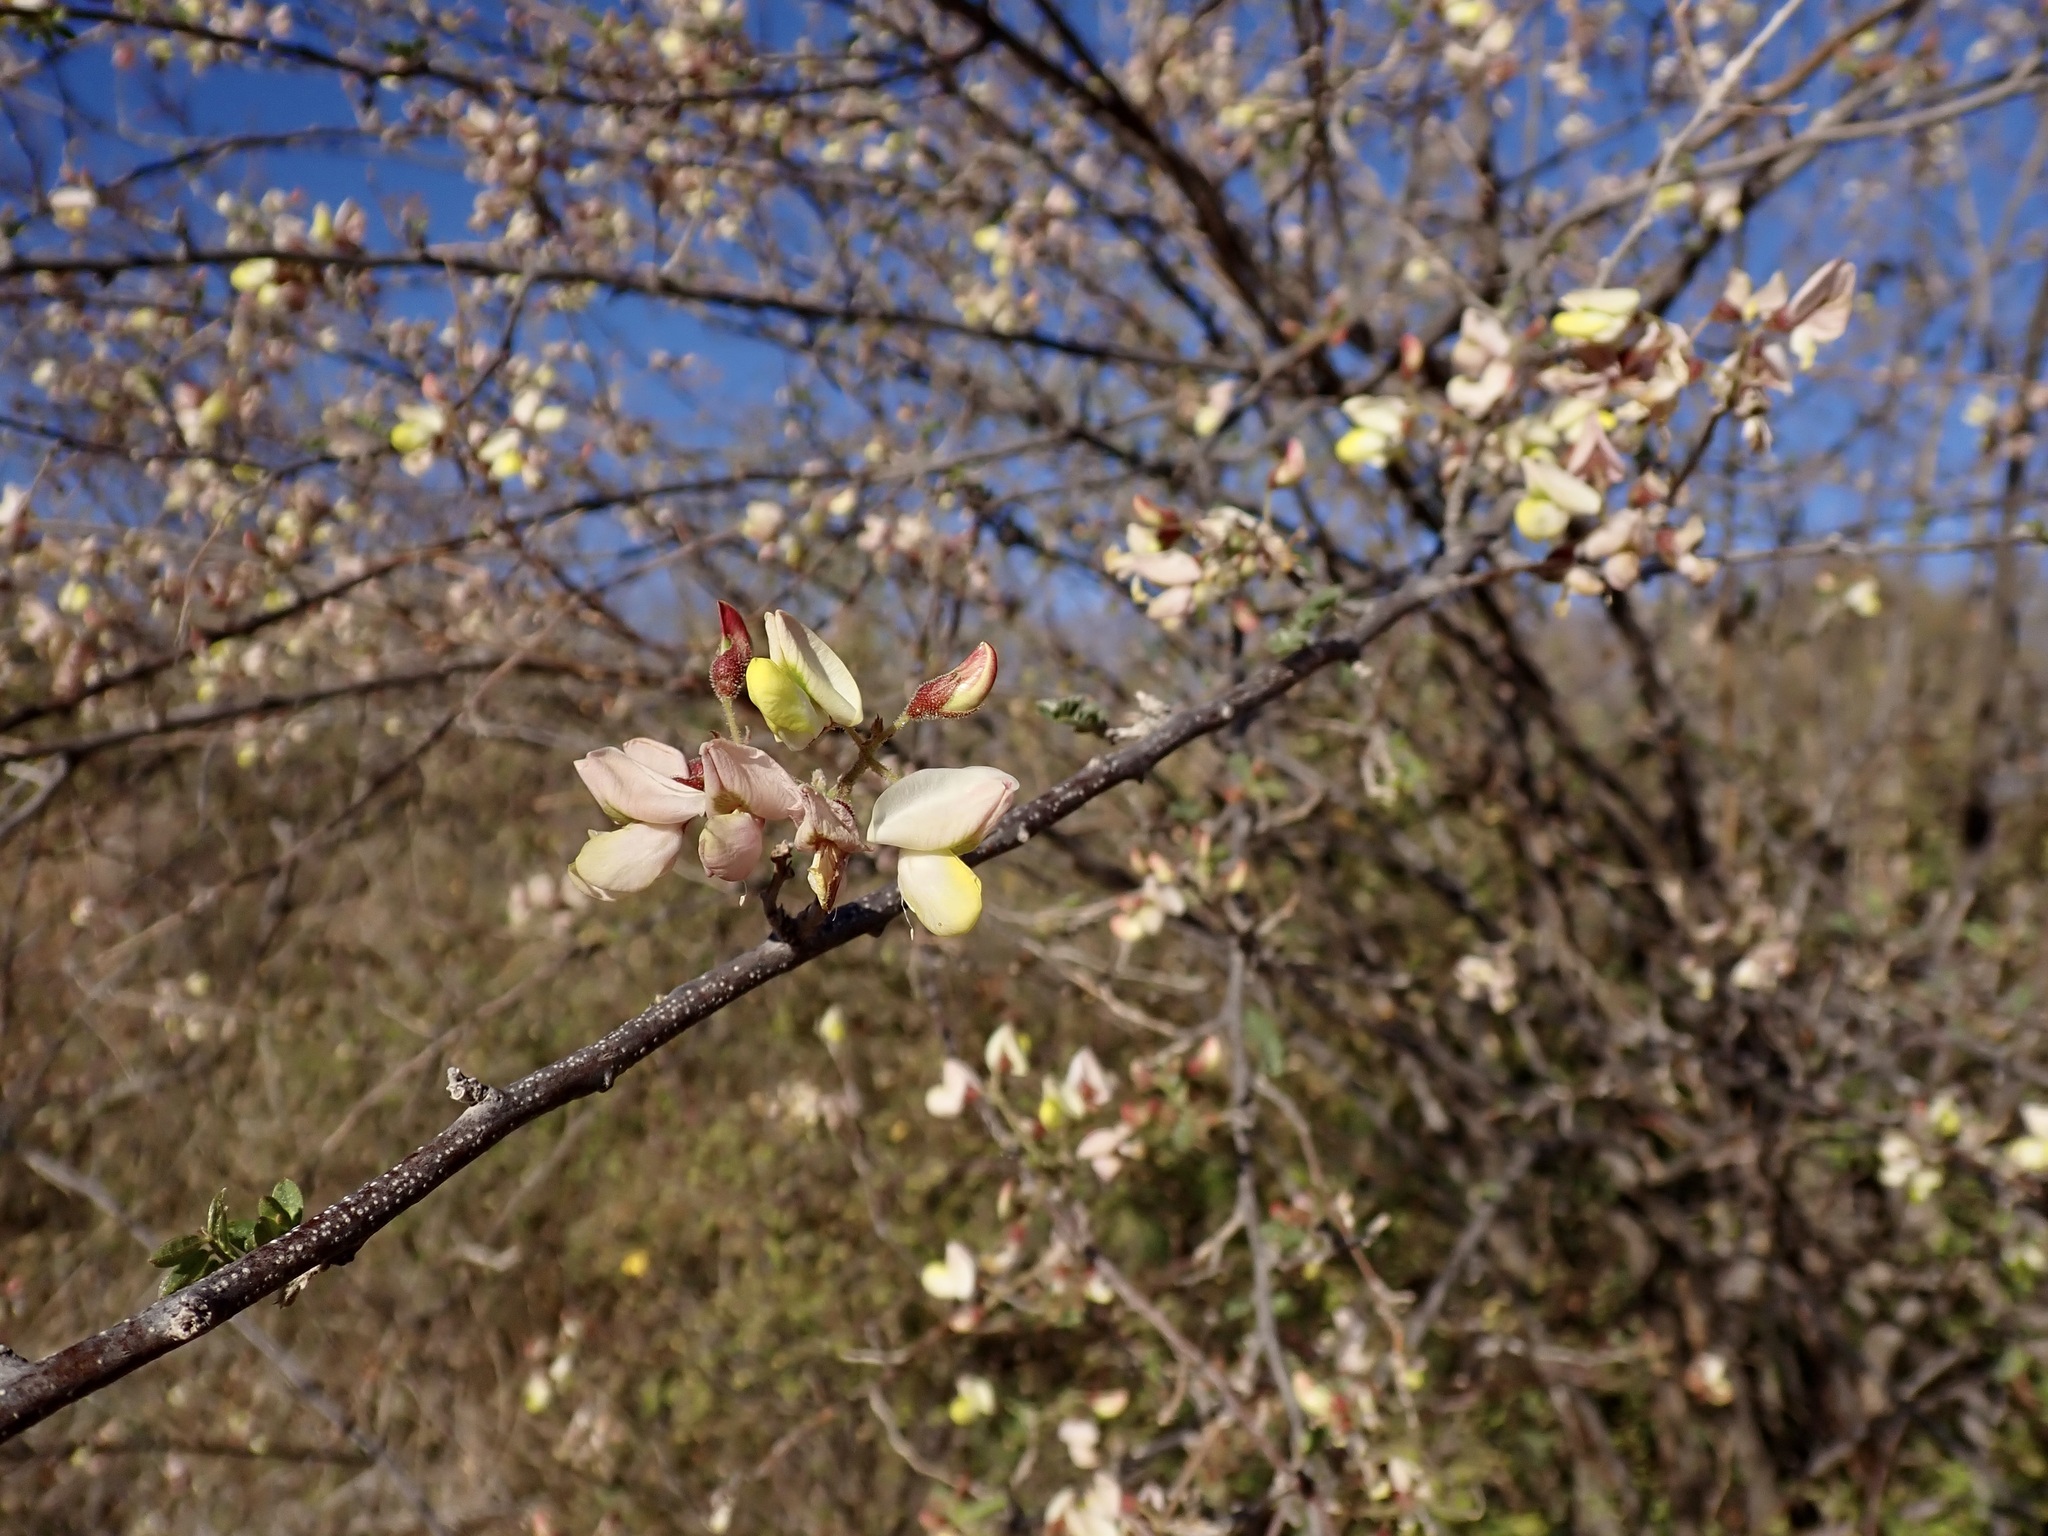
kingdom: Plantae
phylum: Tracheophyta
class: Magnoliopsida
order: Fabales
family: Fabaceae
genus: Coursetia
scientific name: Coursetia glandulosa
